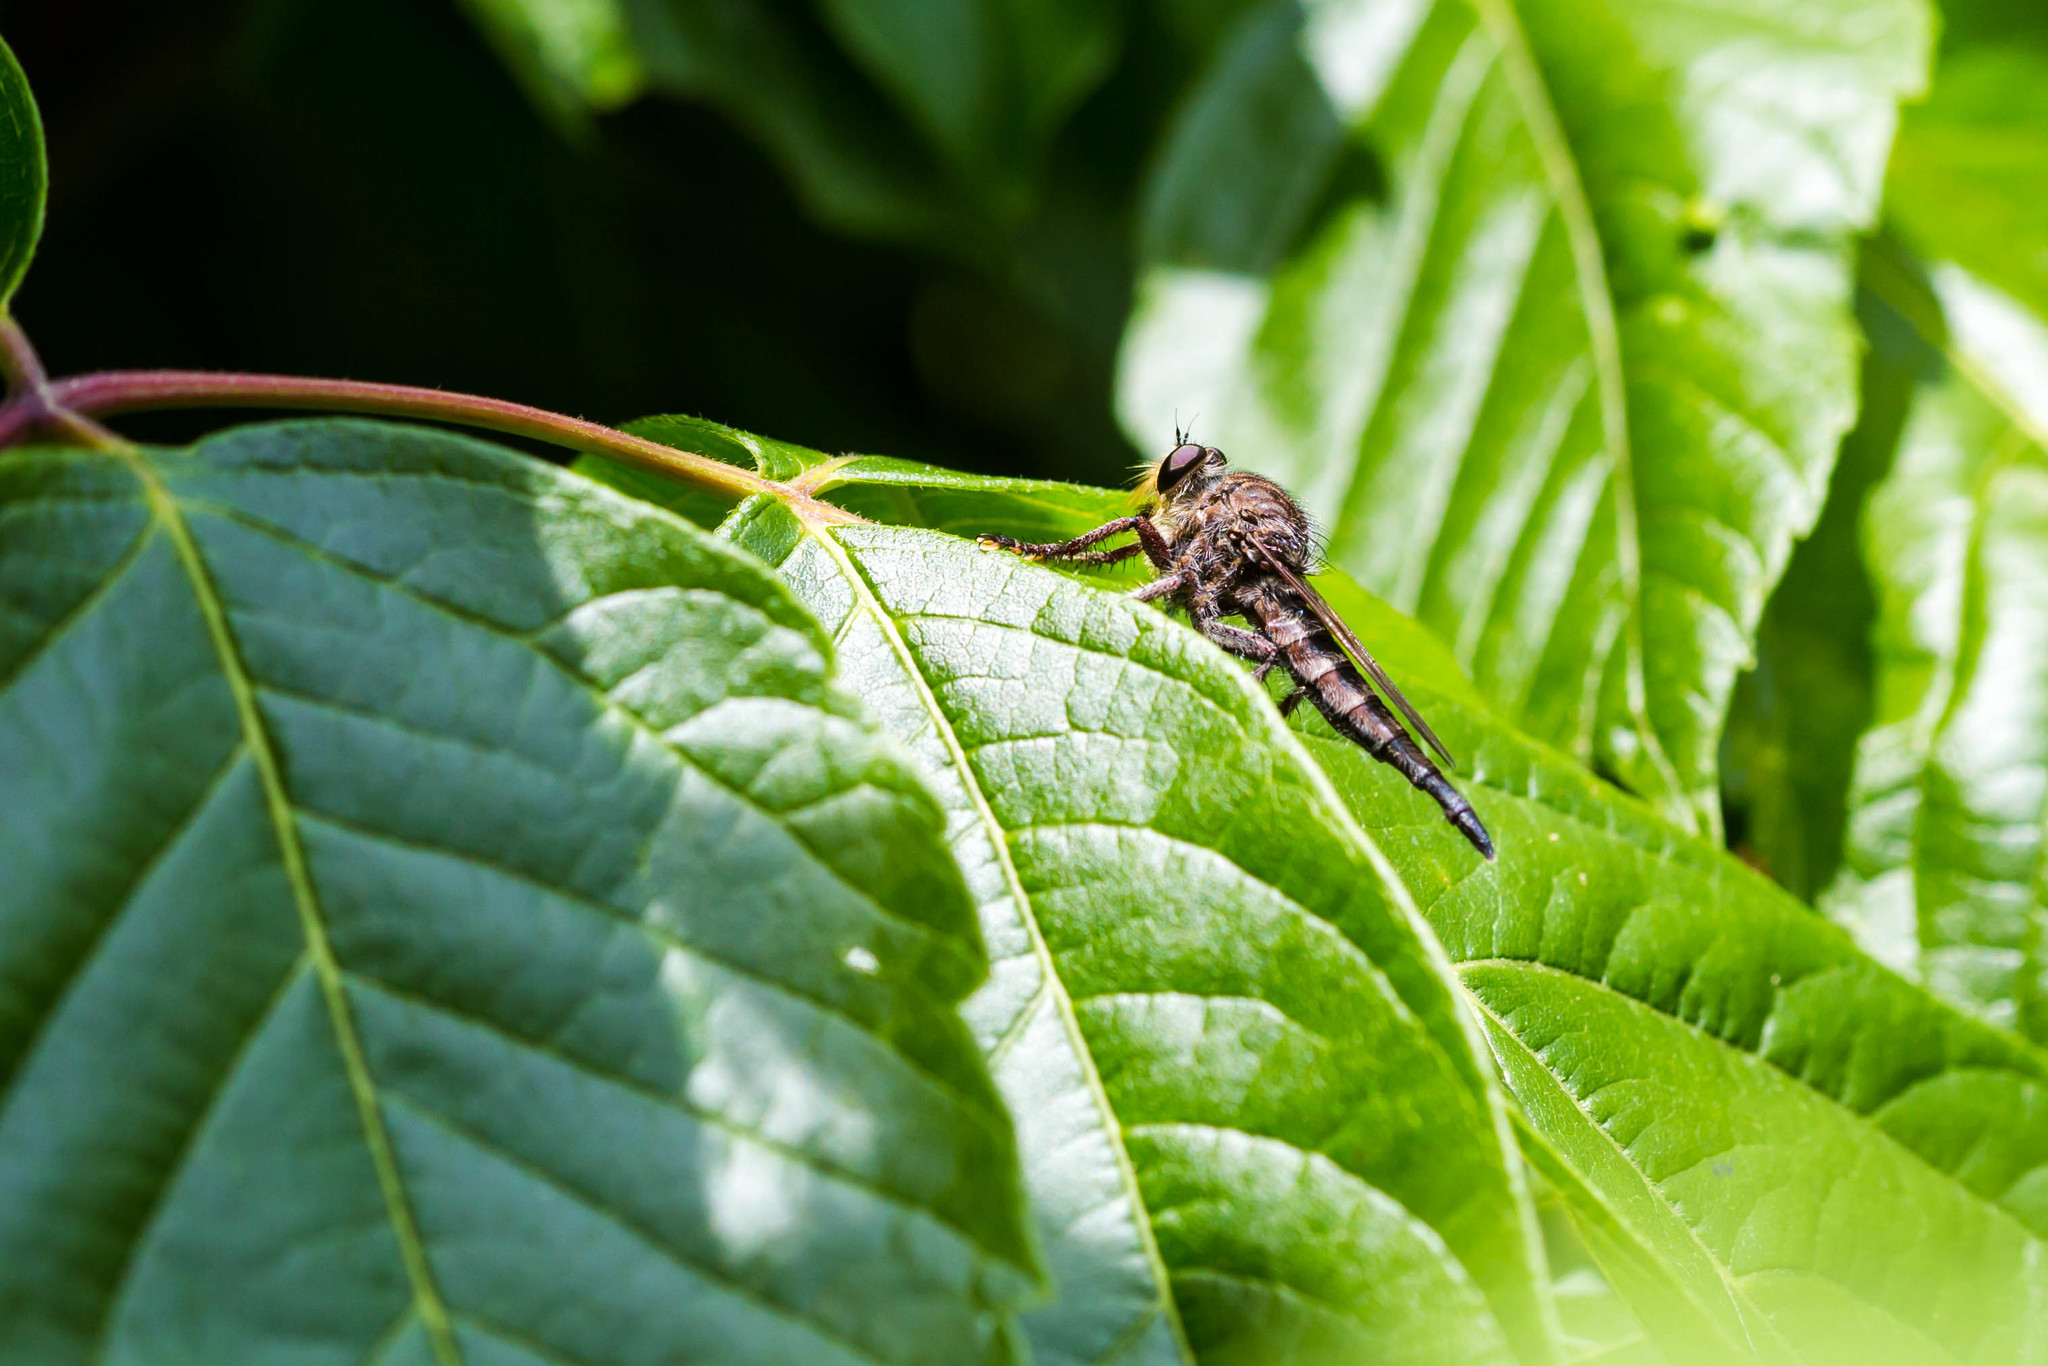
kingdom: Animalia
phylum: Arthropoda
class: Insecta
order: Diptera
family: Asilidae
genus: Promachus
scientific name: Promachus bastardii
